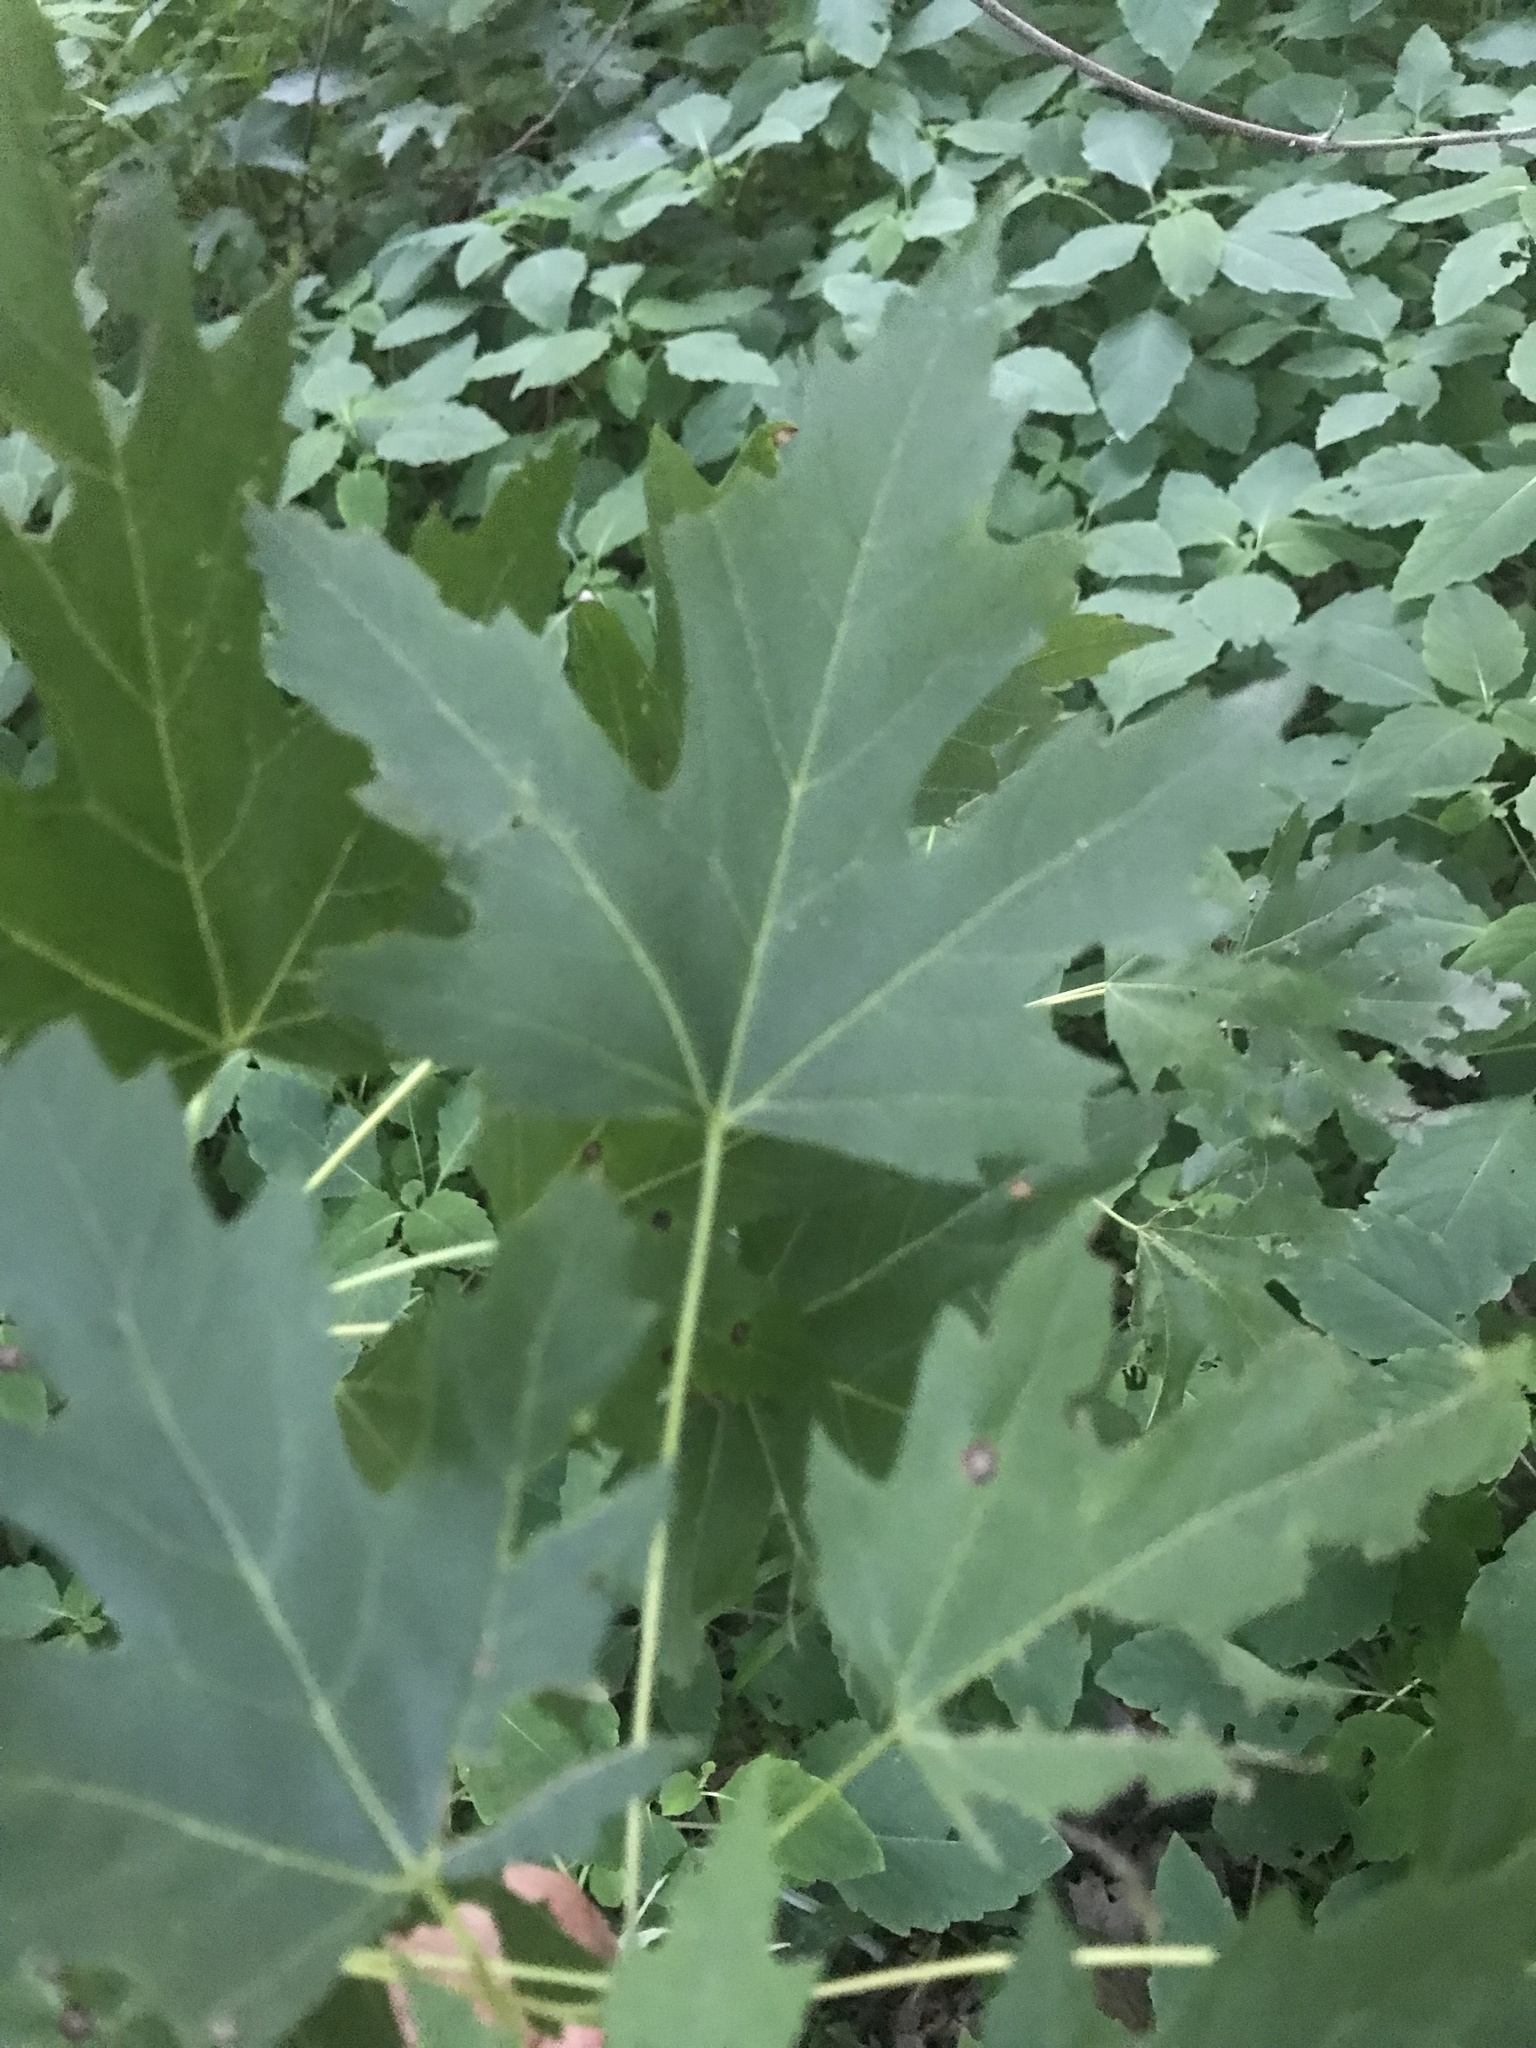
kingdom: Plantae
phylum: Tracheophyta
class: Magnoliopsida
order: Sapindales
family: Sapindaceae
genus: Acer
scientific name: Acer saccharinum
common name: Silver maple
